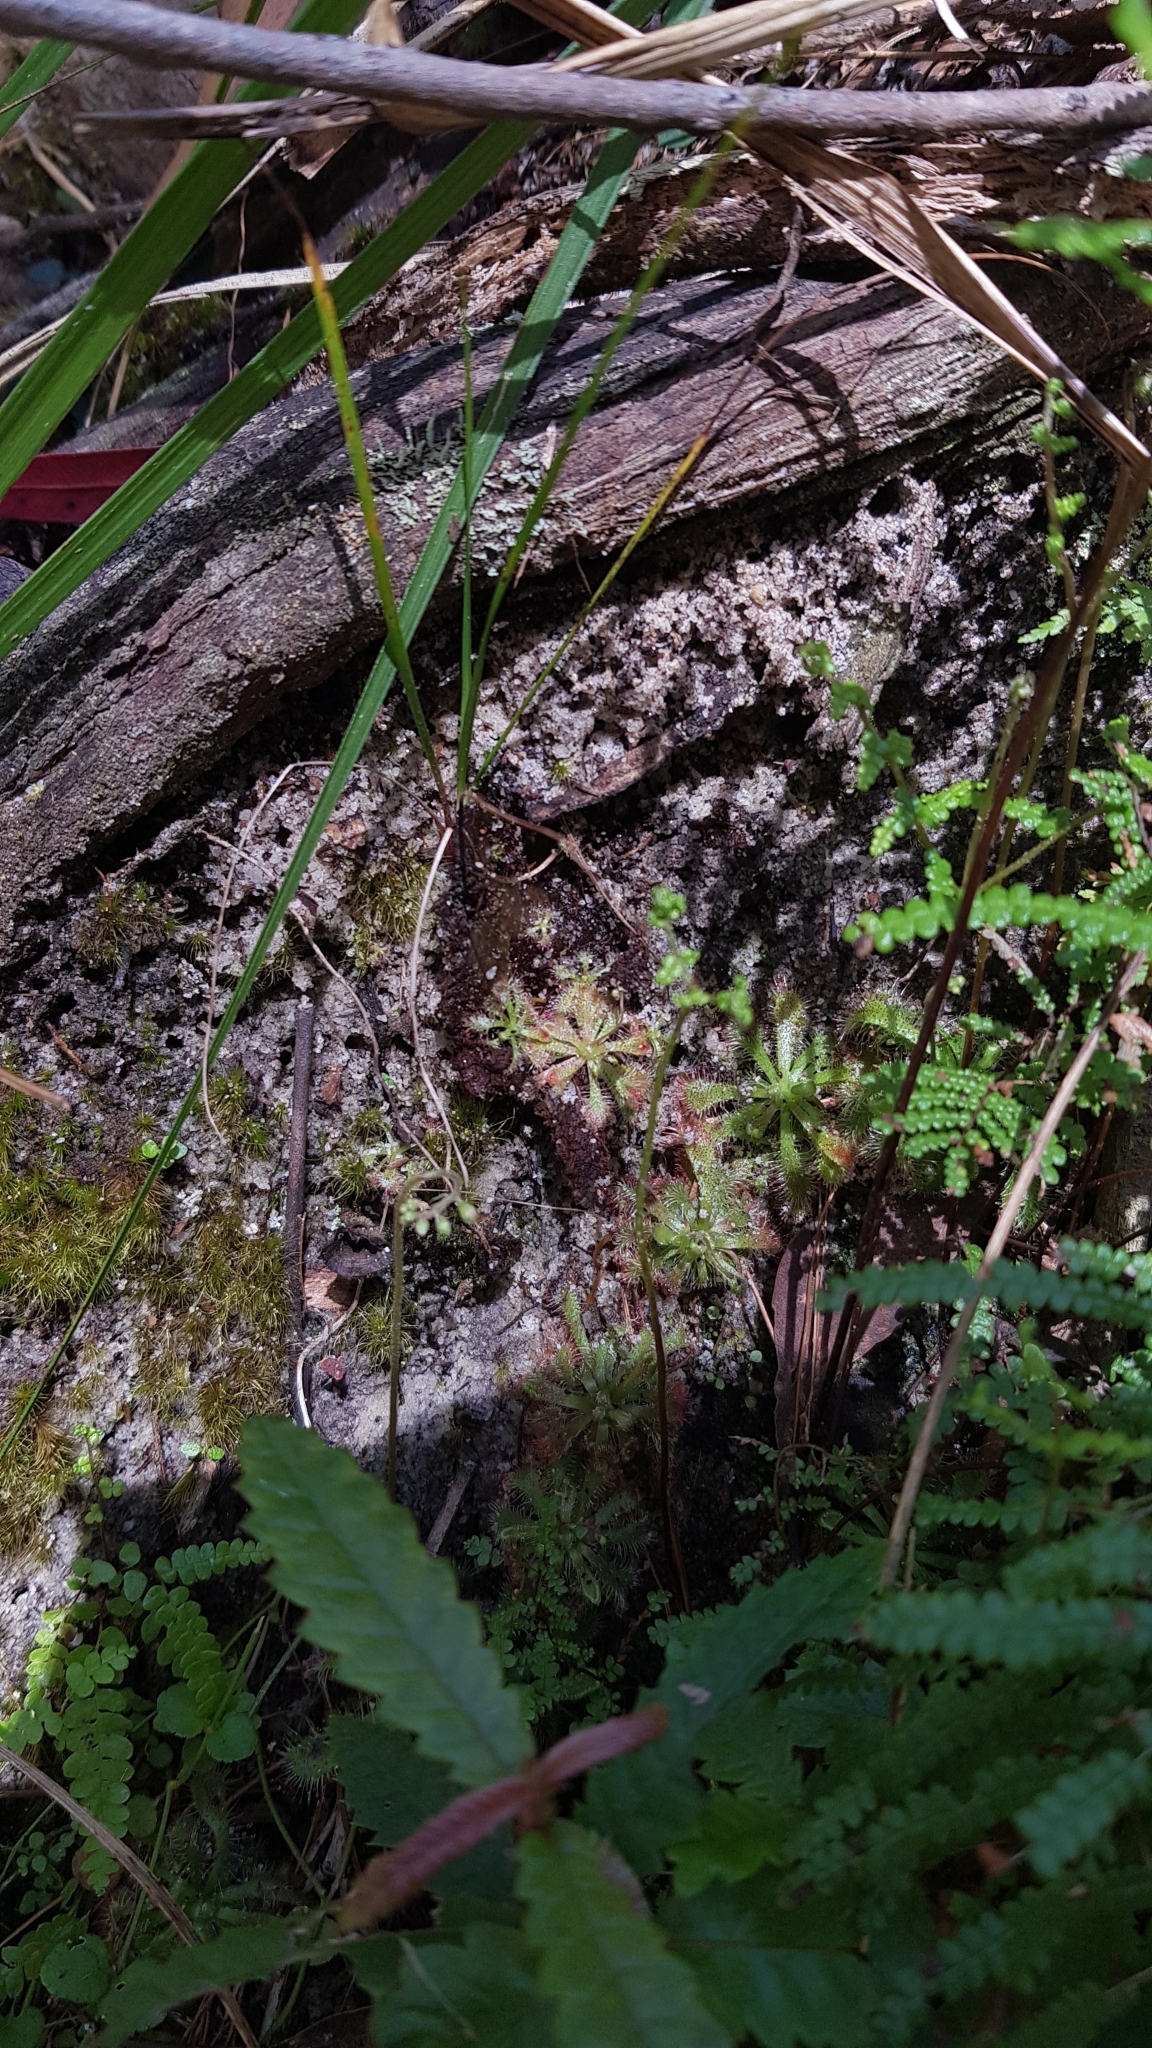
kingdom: Plantae
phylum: Tracheophyta
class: Magnoliopsida
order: Caryophyllales
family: Droseraceae
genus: Drosera
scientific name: Drosera spatulata
